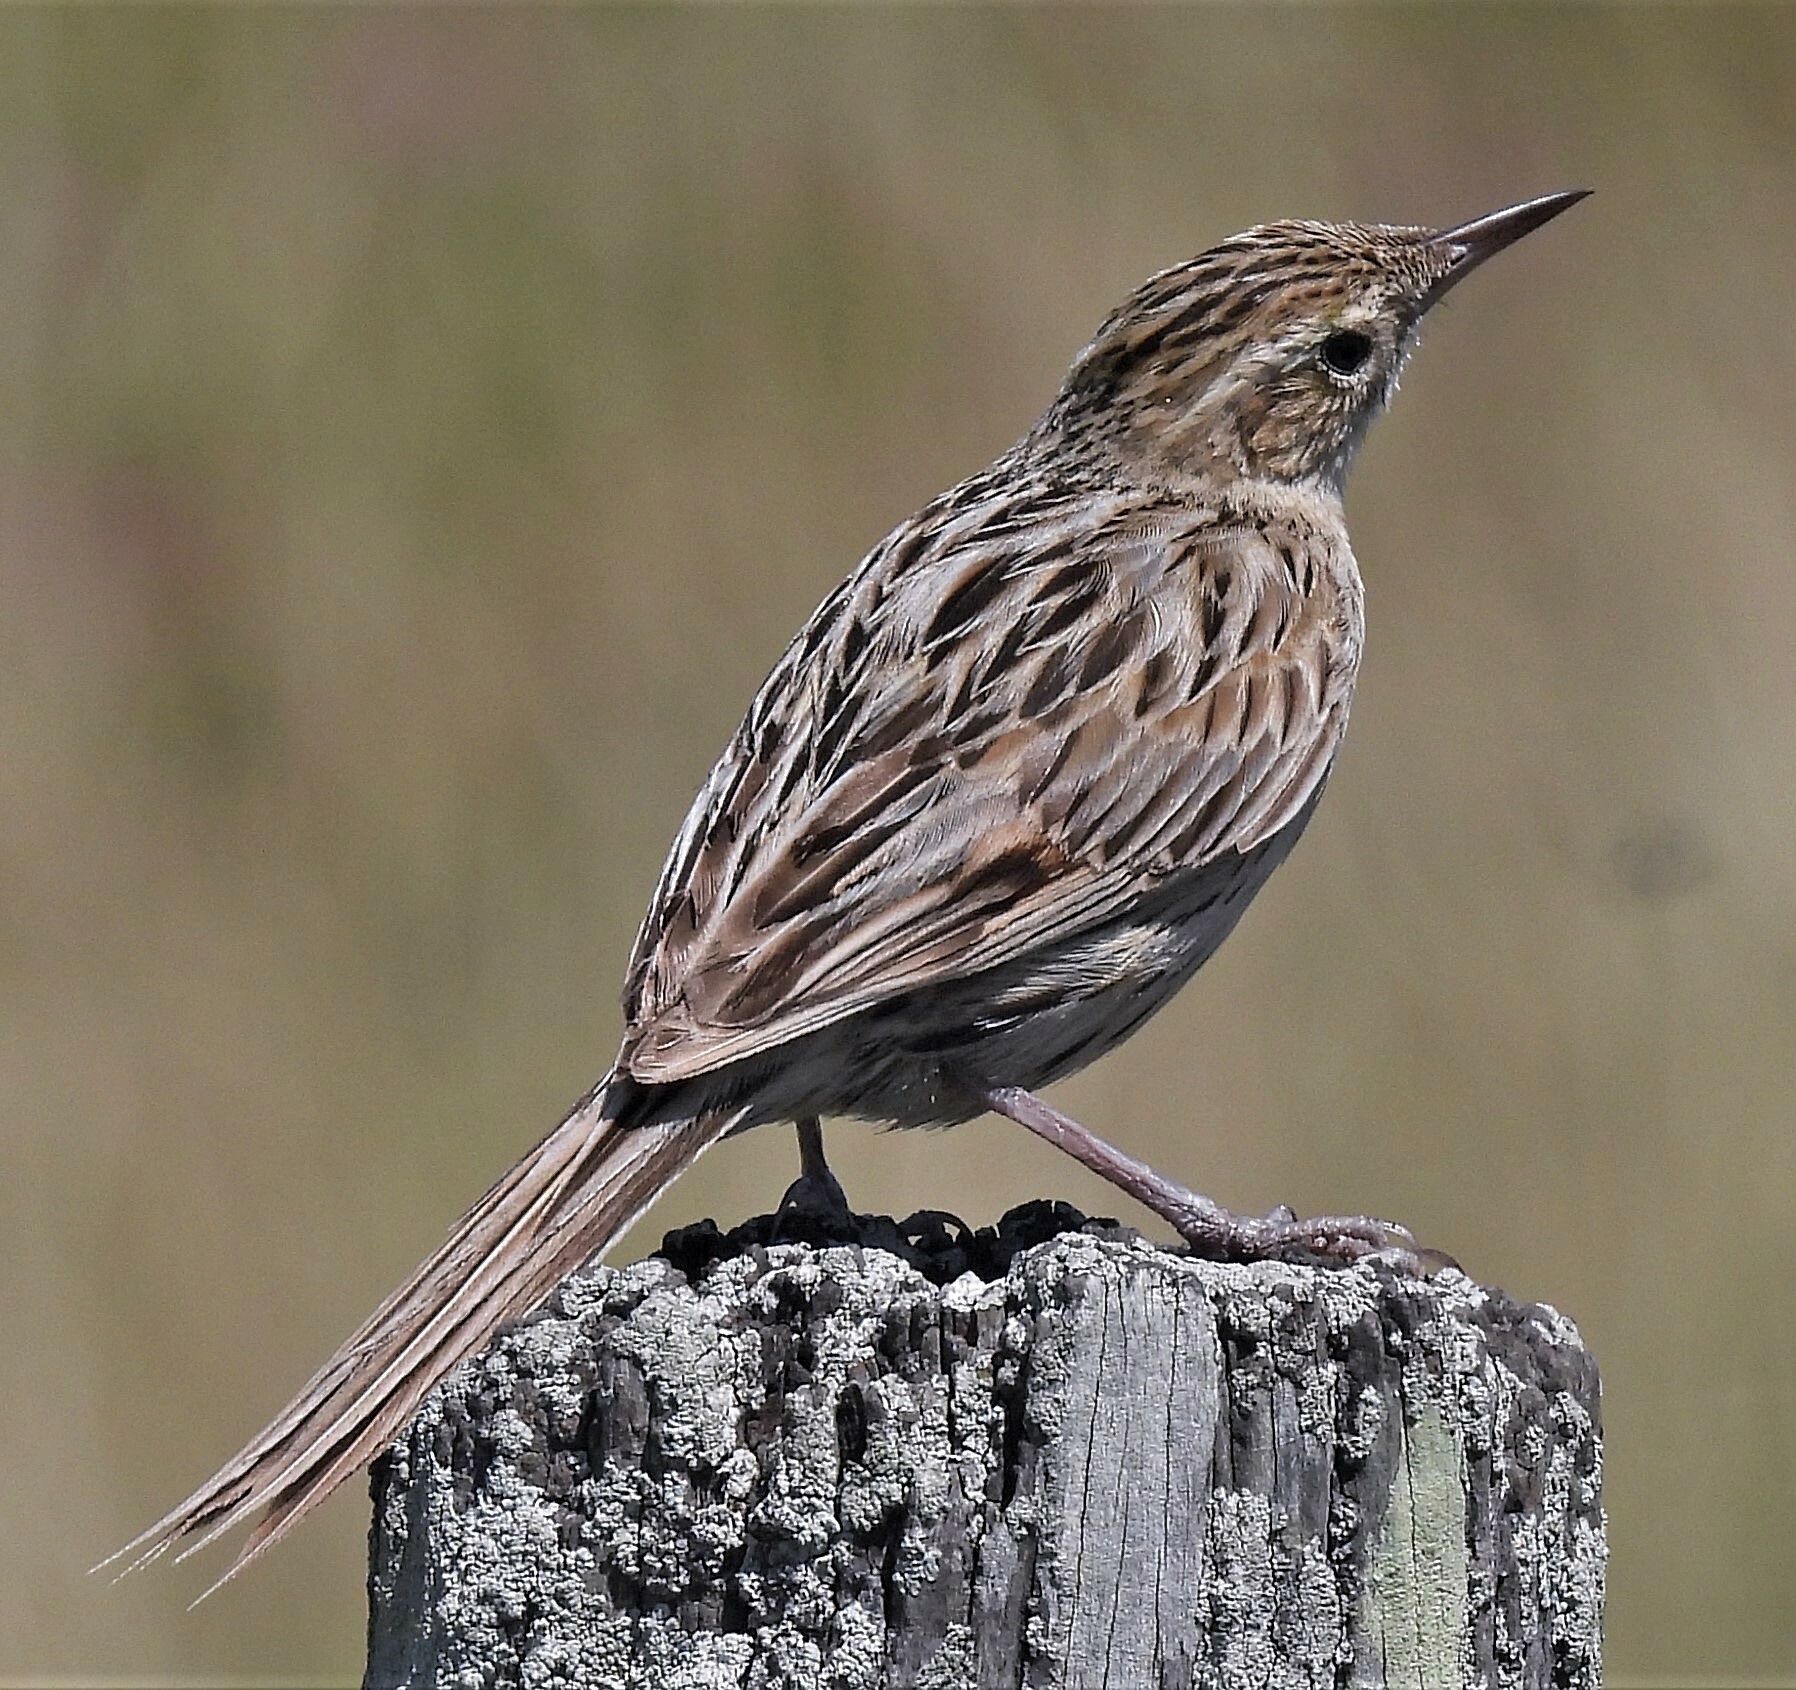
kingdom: Animalia
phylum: Chordata
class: Aves
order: Passeriformes
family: Furnariidae
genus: Asthenes
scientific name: Asthenes hudsoni
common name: Hudson's canastero
